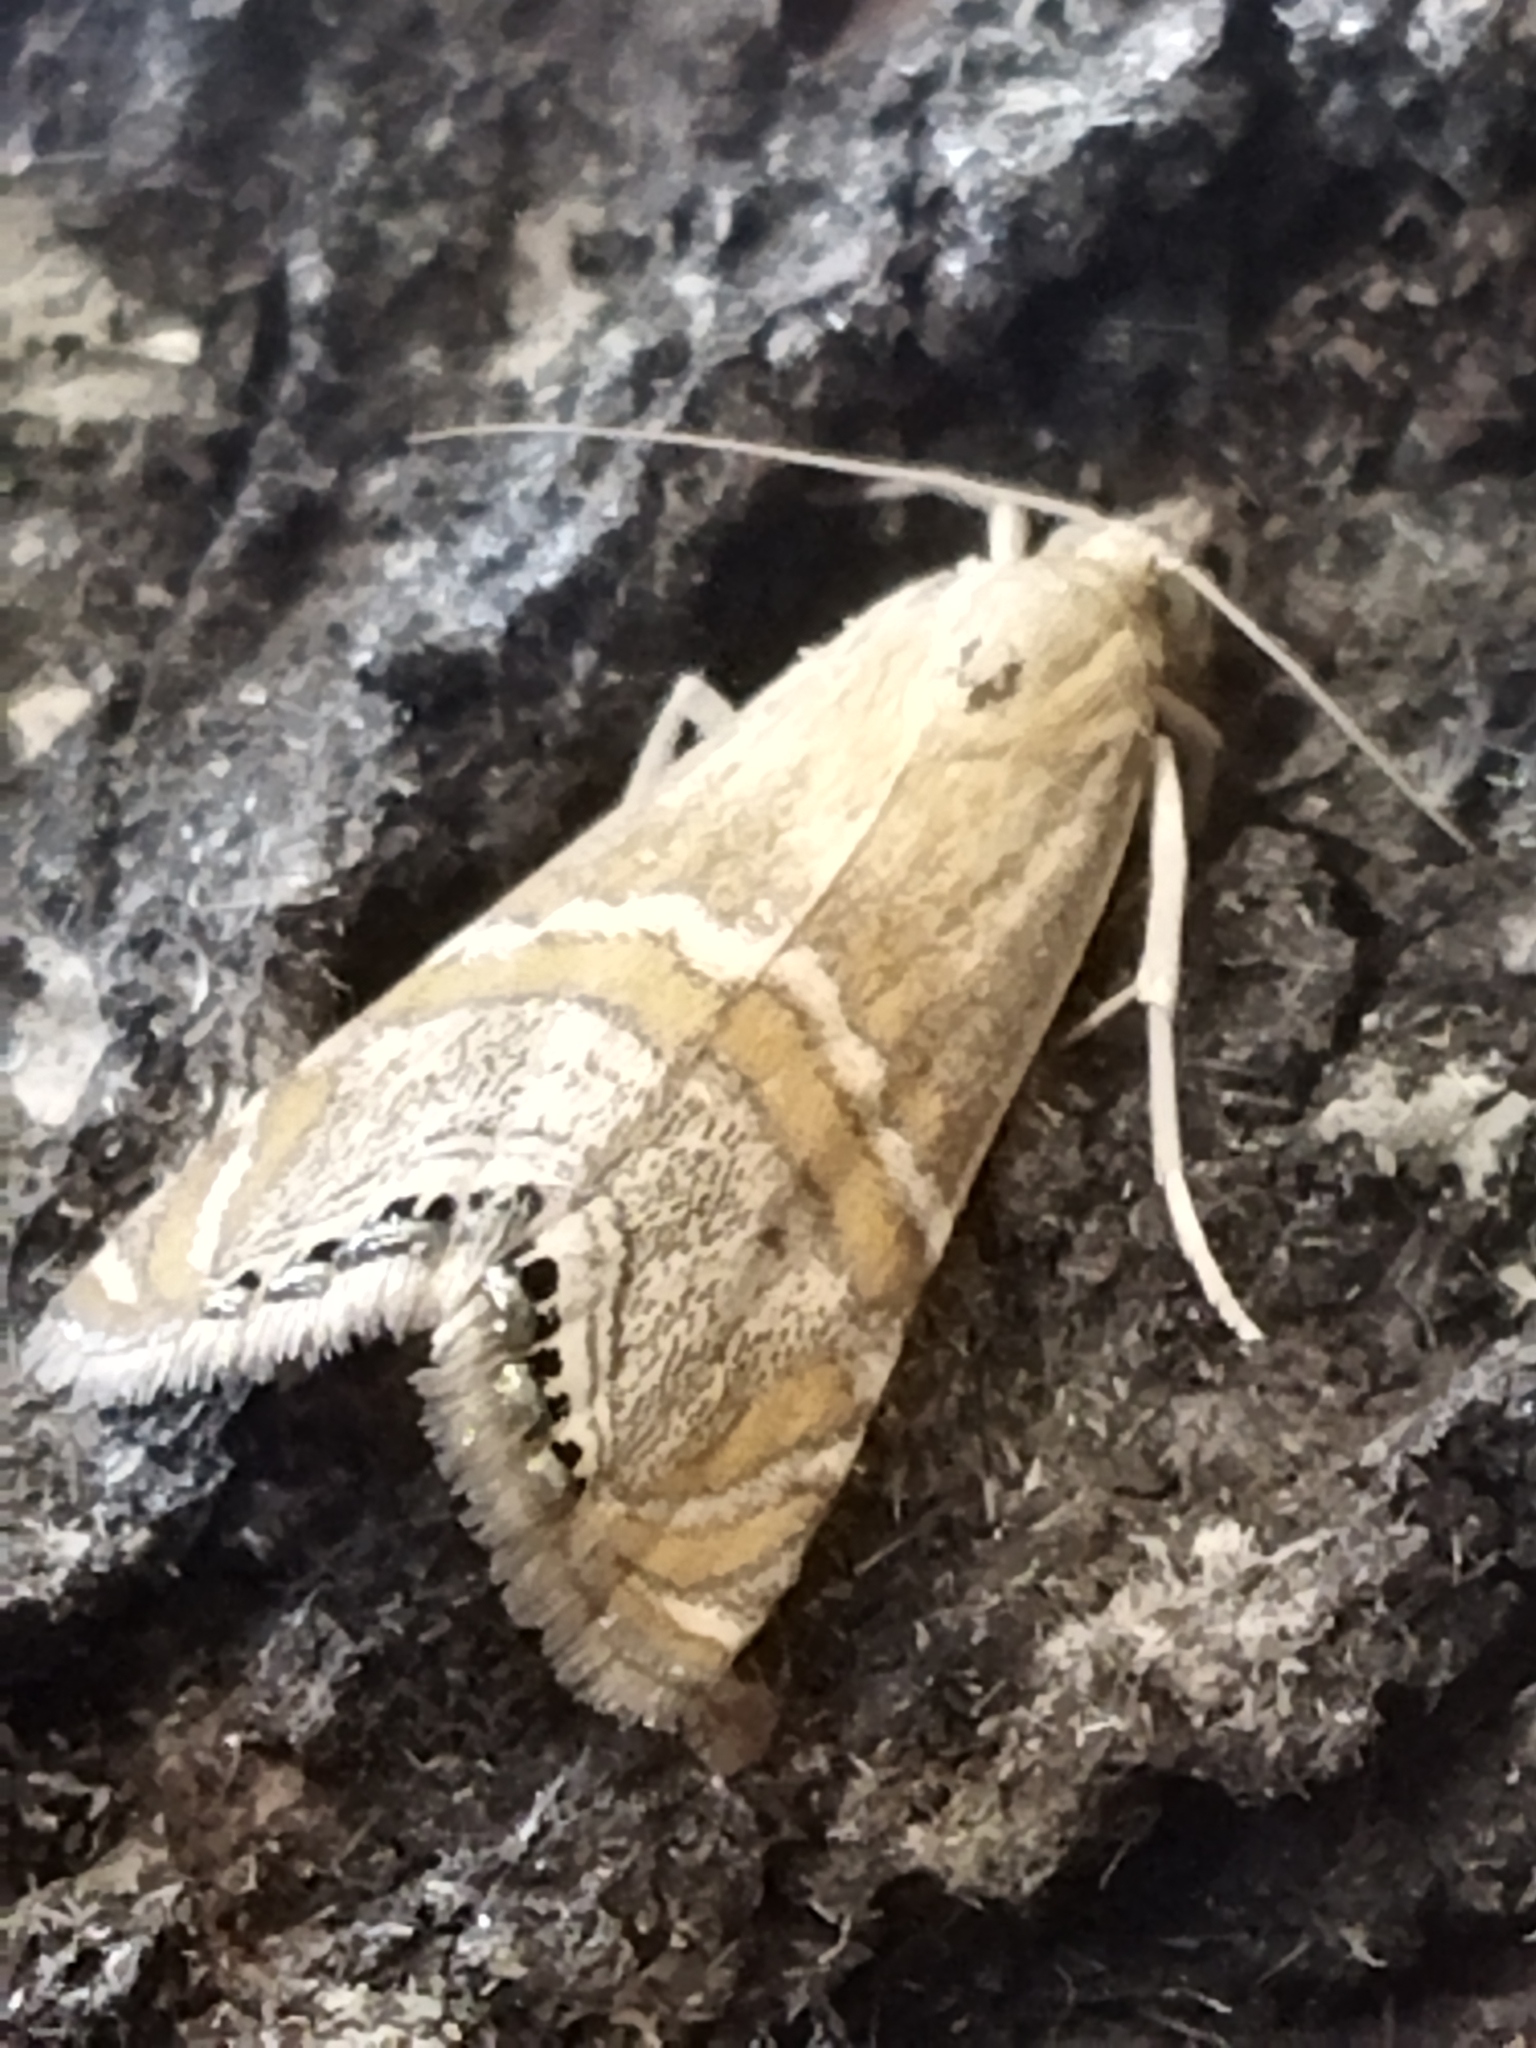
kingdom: Animalia
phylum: Arthropoda
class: Insecta
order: Lepidoptera
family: Crambidae
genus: Euchromius
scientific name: Euchromius bella
